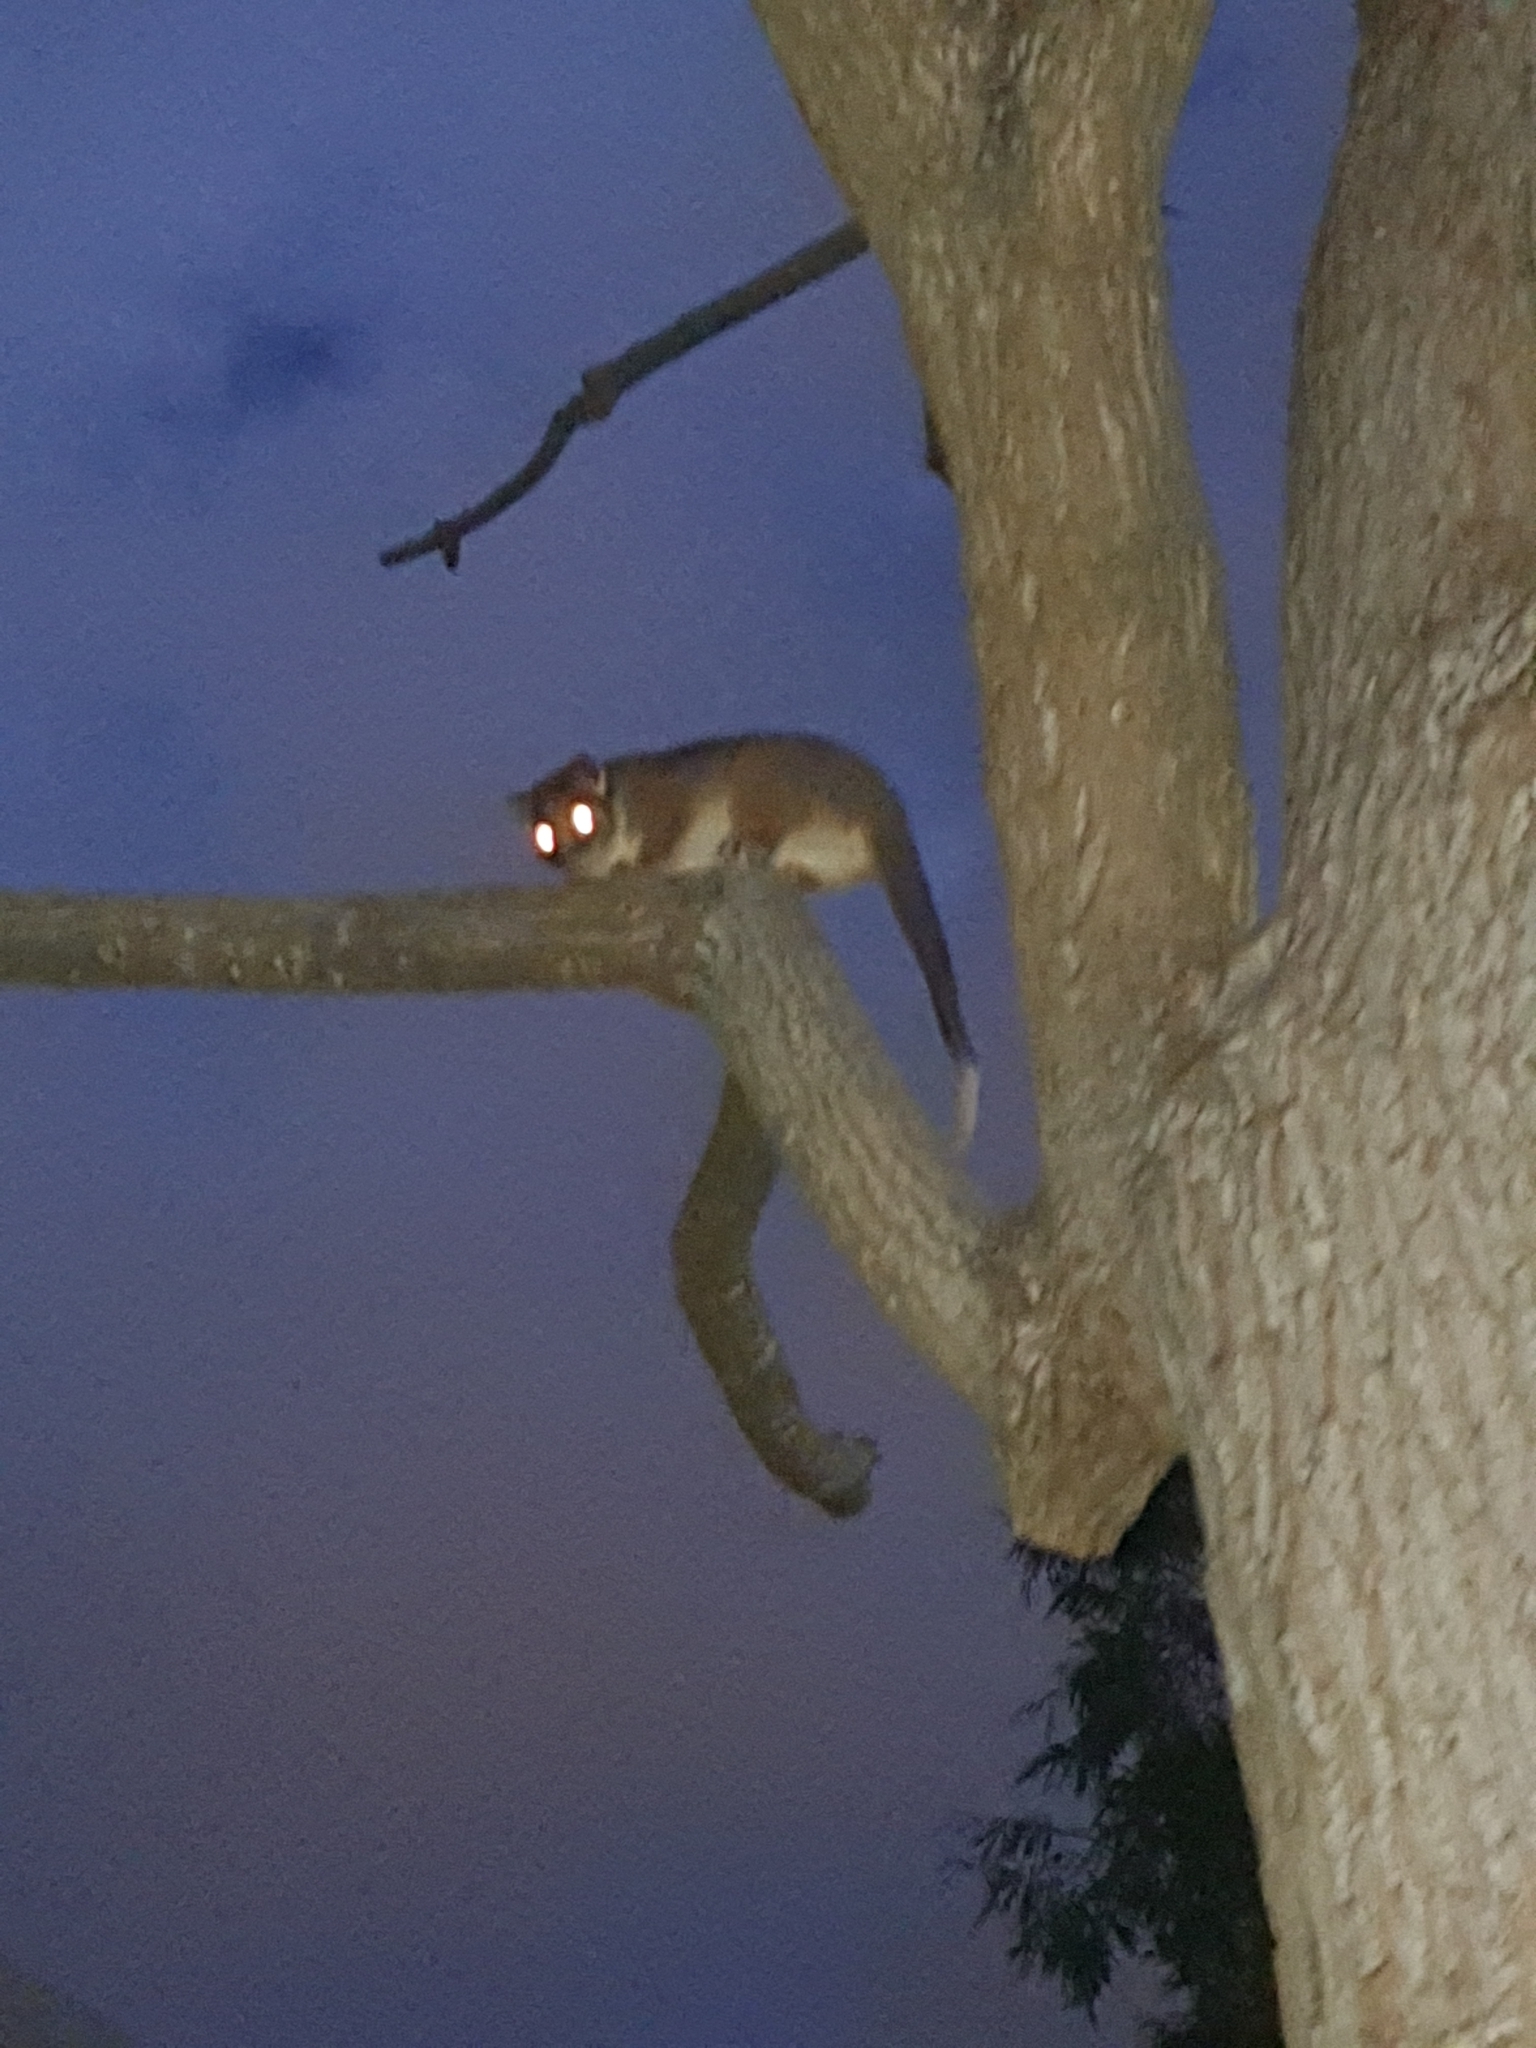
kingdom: Animalia
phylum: Chordata
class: Mammalia
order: Diprotodontia
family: Pseudocheiridae
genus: Pseudocheirus
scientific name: Pseudocheirus peregrinus
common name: Common ringtail possum
